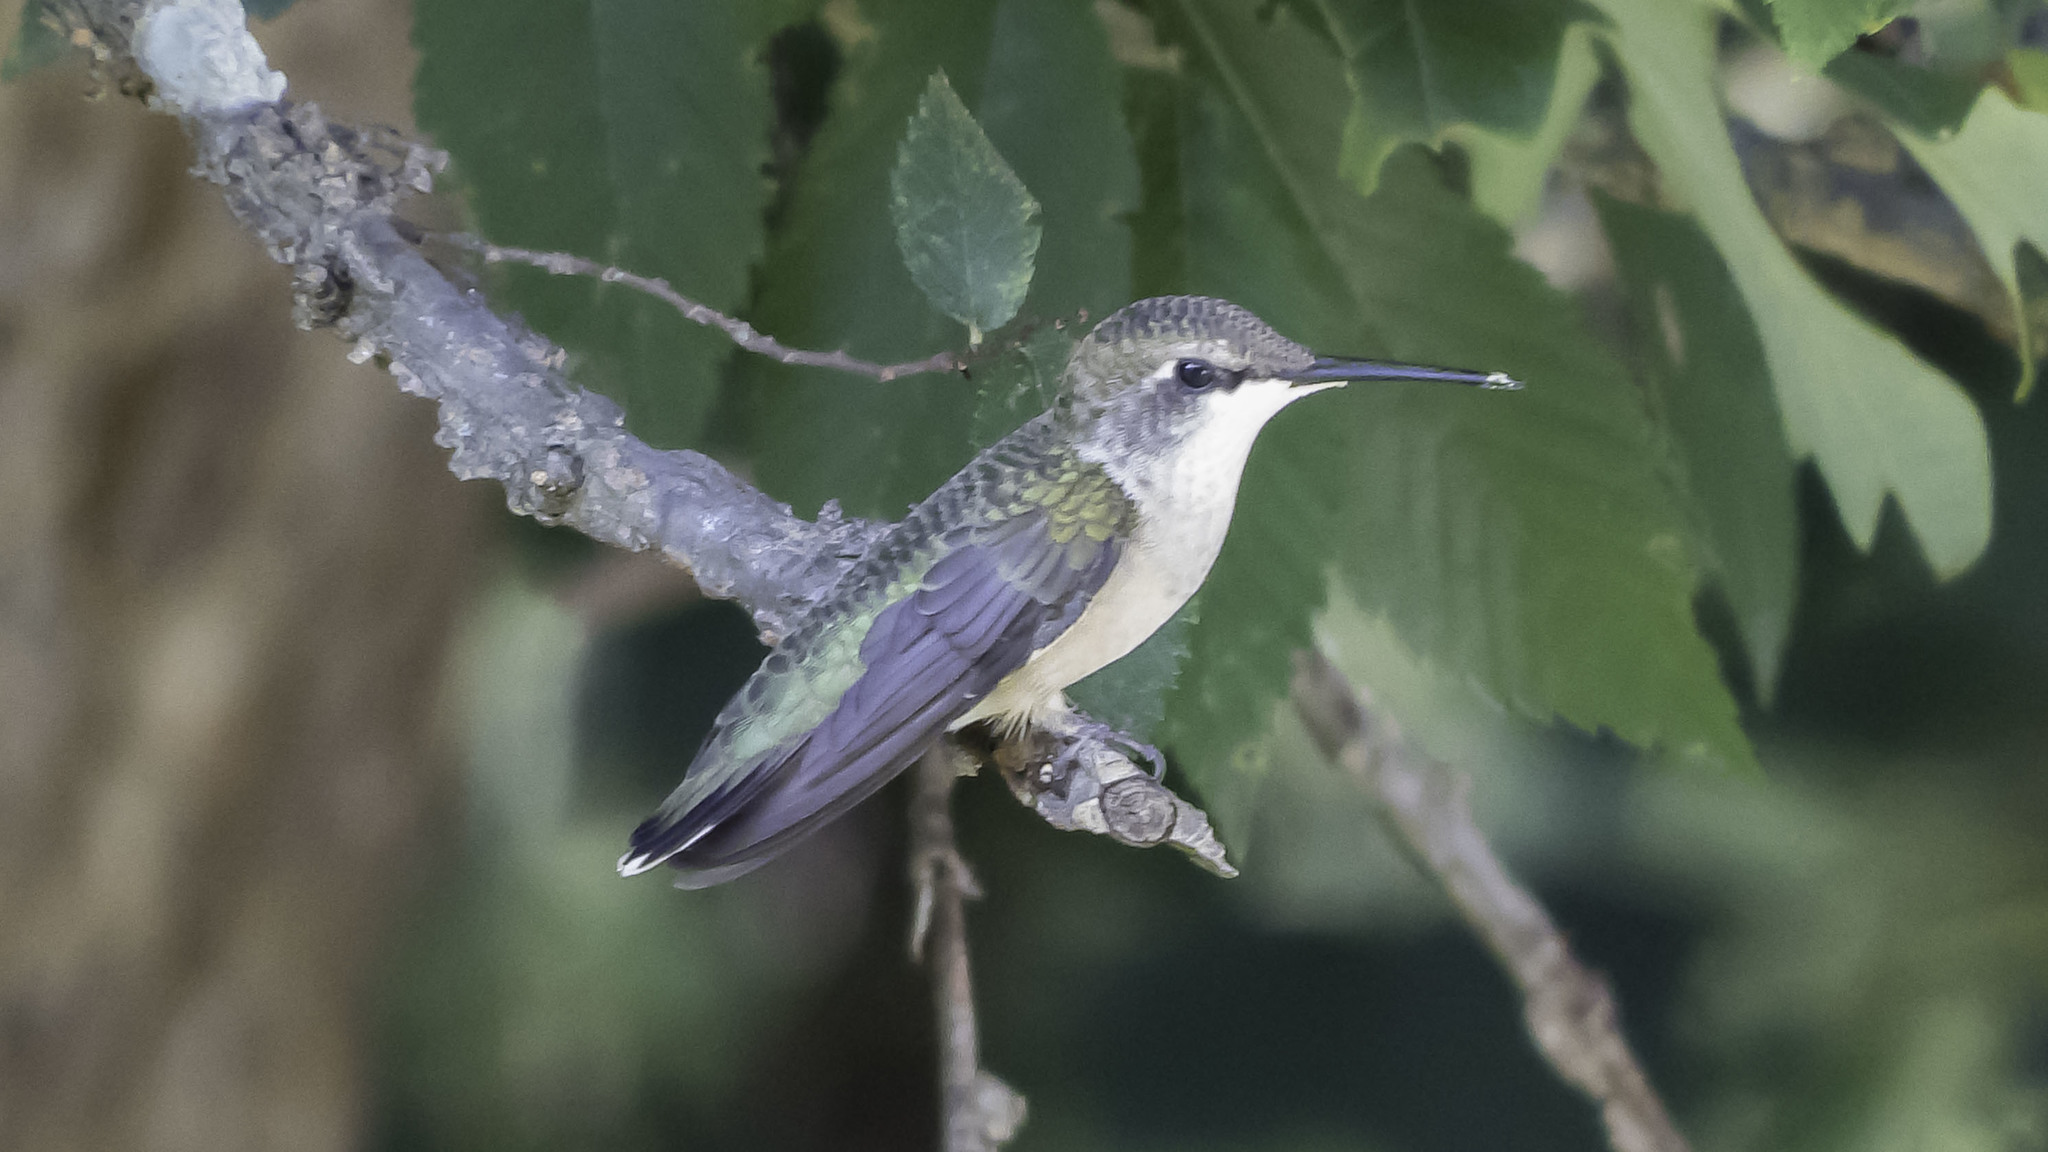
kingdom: Animalia
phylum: Chordata
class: Aves
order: Apodiformes
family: Trochilidae
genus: Archilochus
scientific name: Archilochus colubris
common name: Ruby-throated hummingbird
